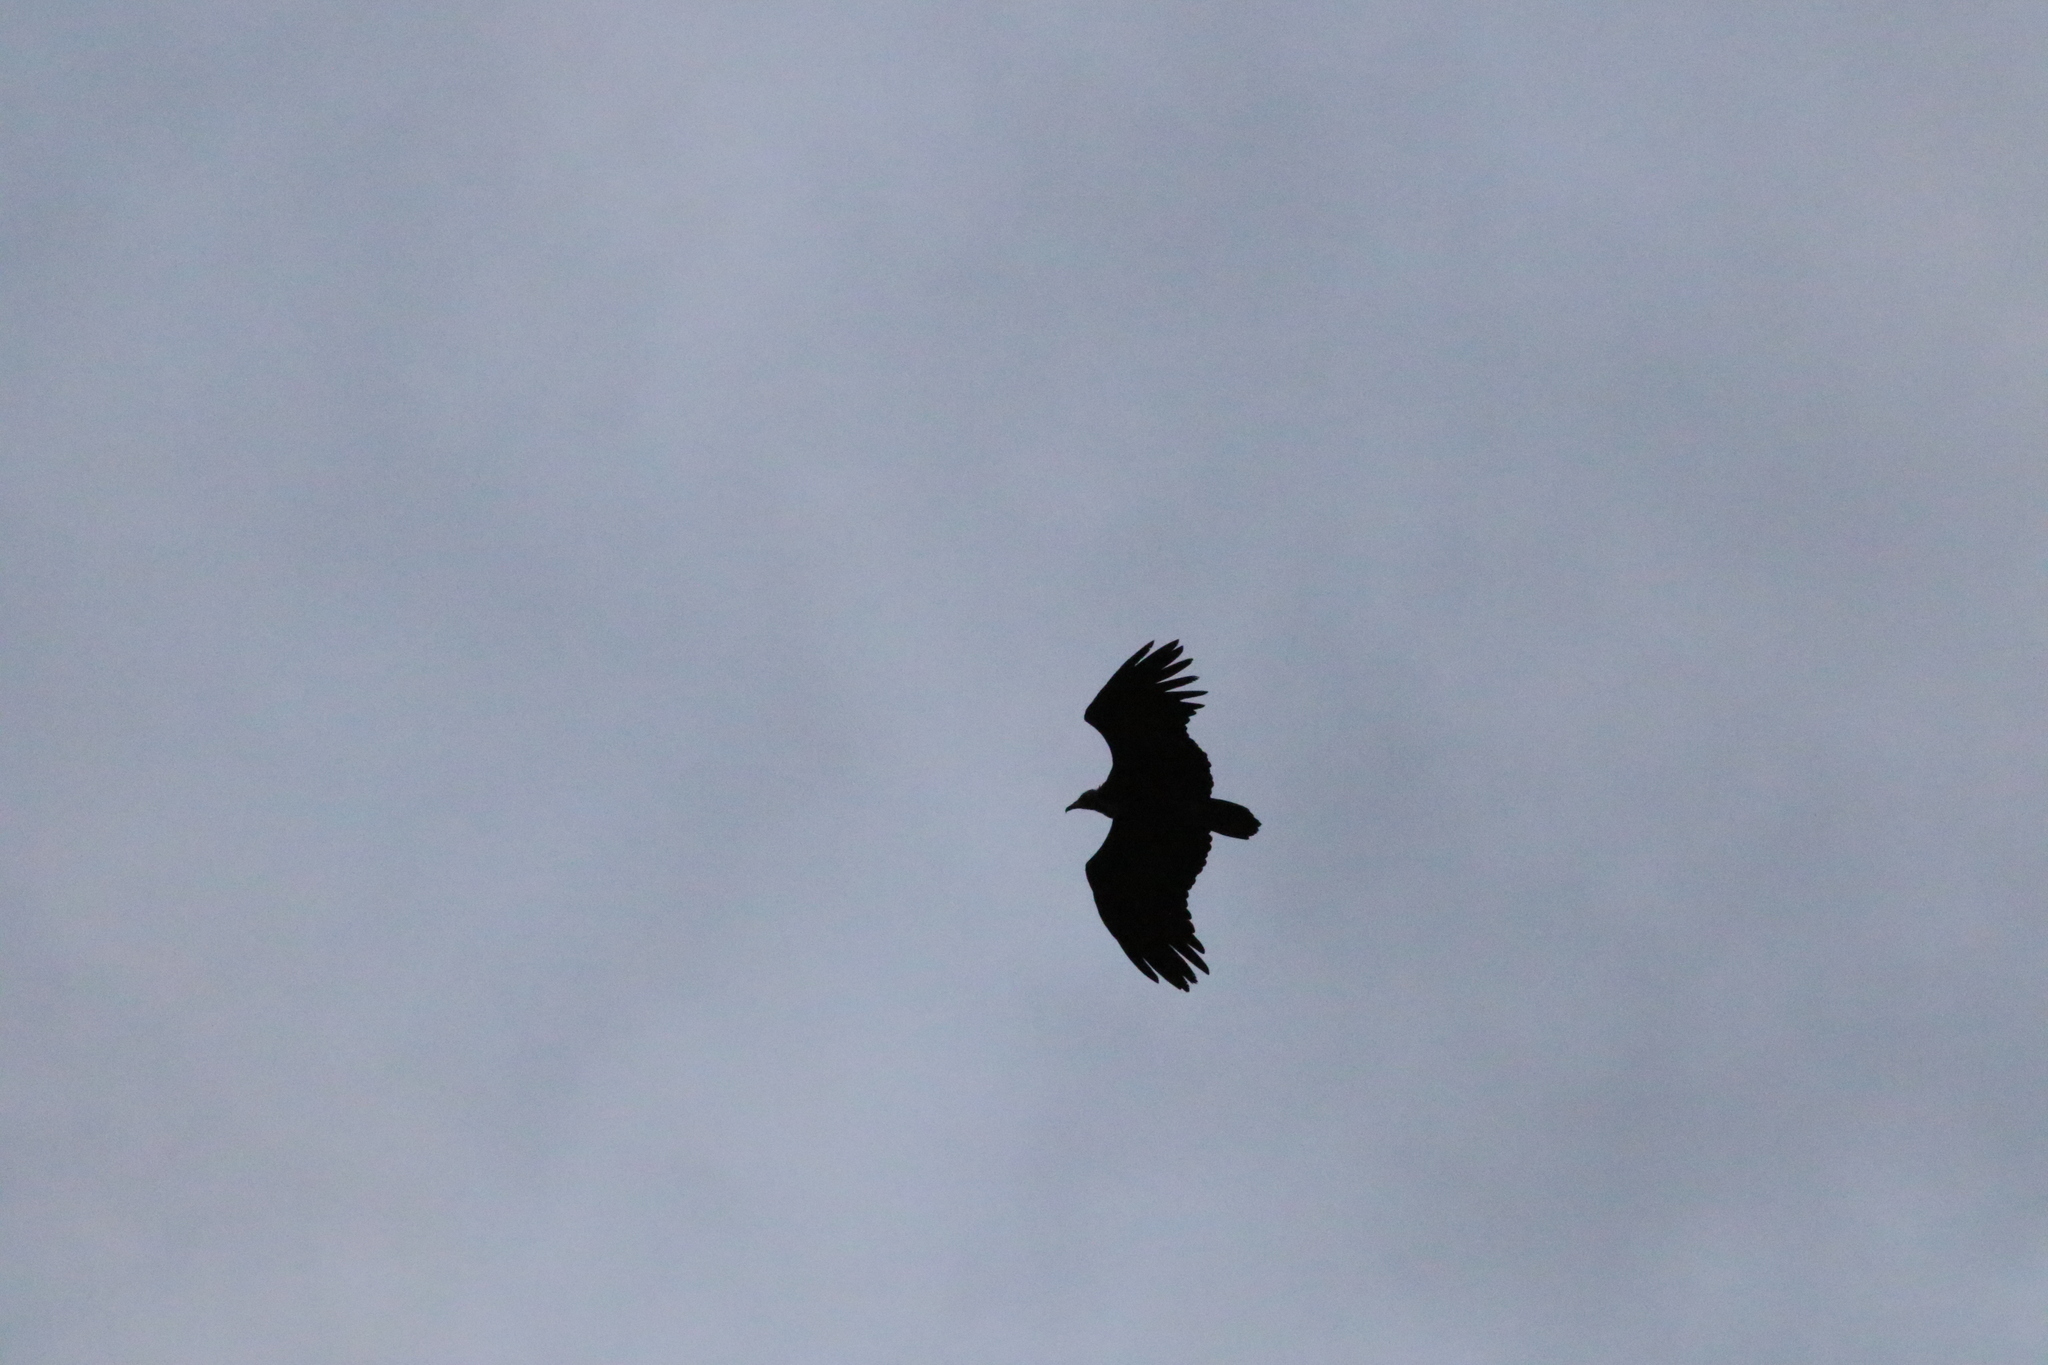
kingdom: Animalia
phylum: Chordata
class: Aves
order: Accipitriformes
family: Accipitridae
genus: Necrosyrtes
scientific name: Necrosyrtes monachus
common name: Hooded vulture
